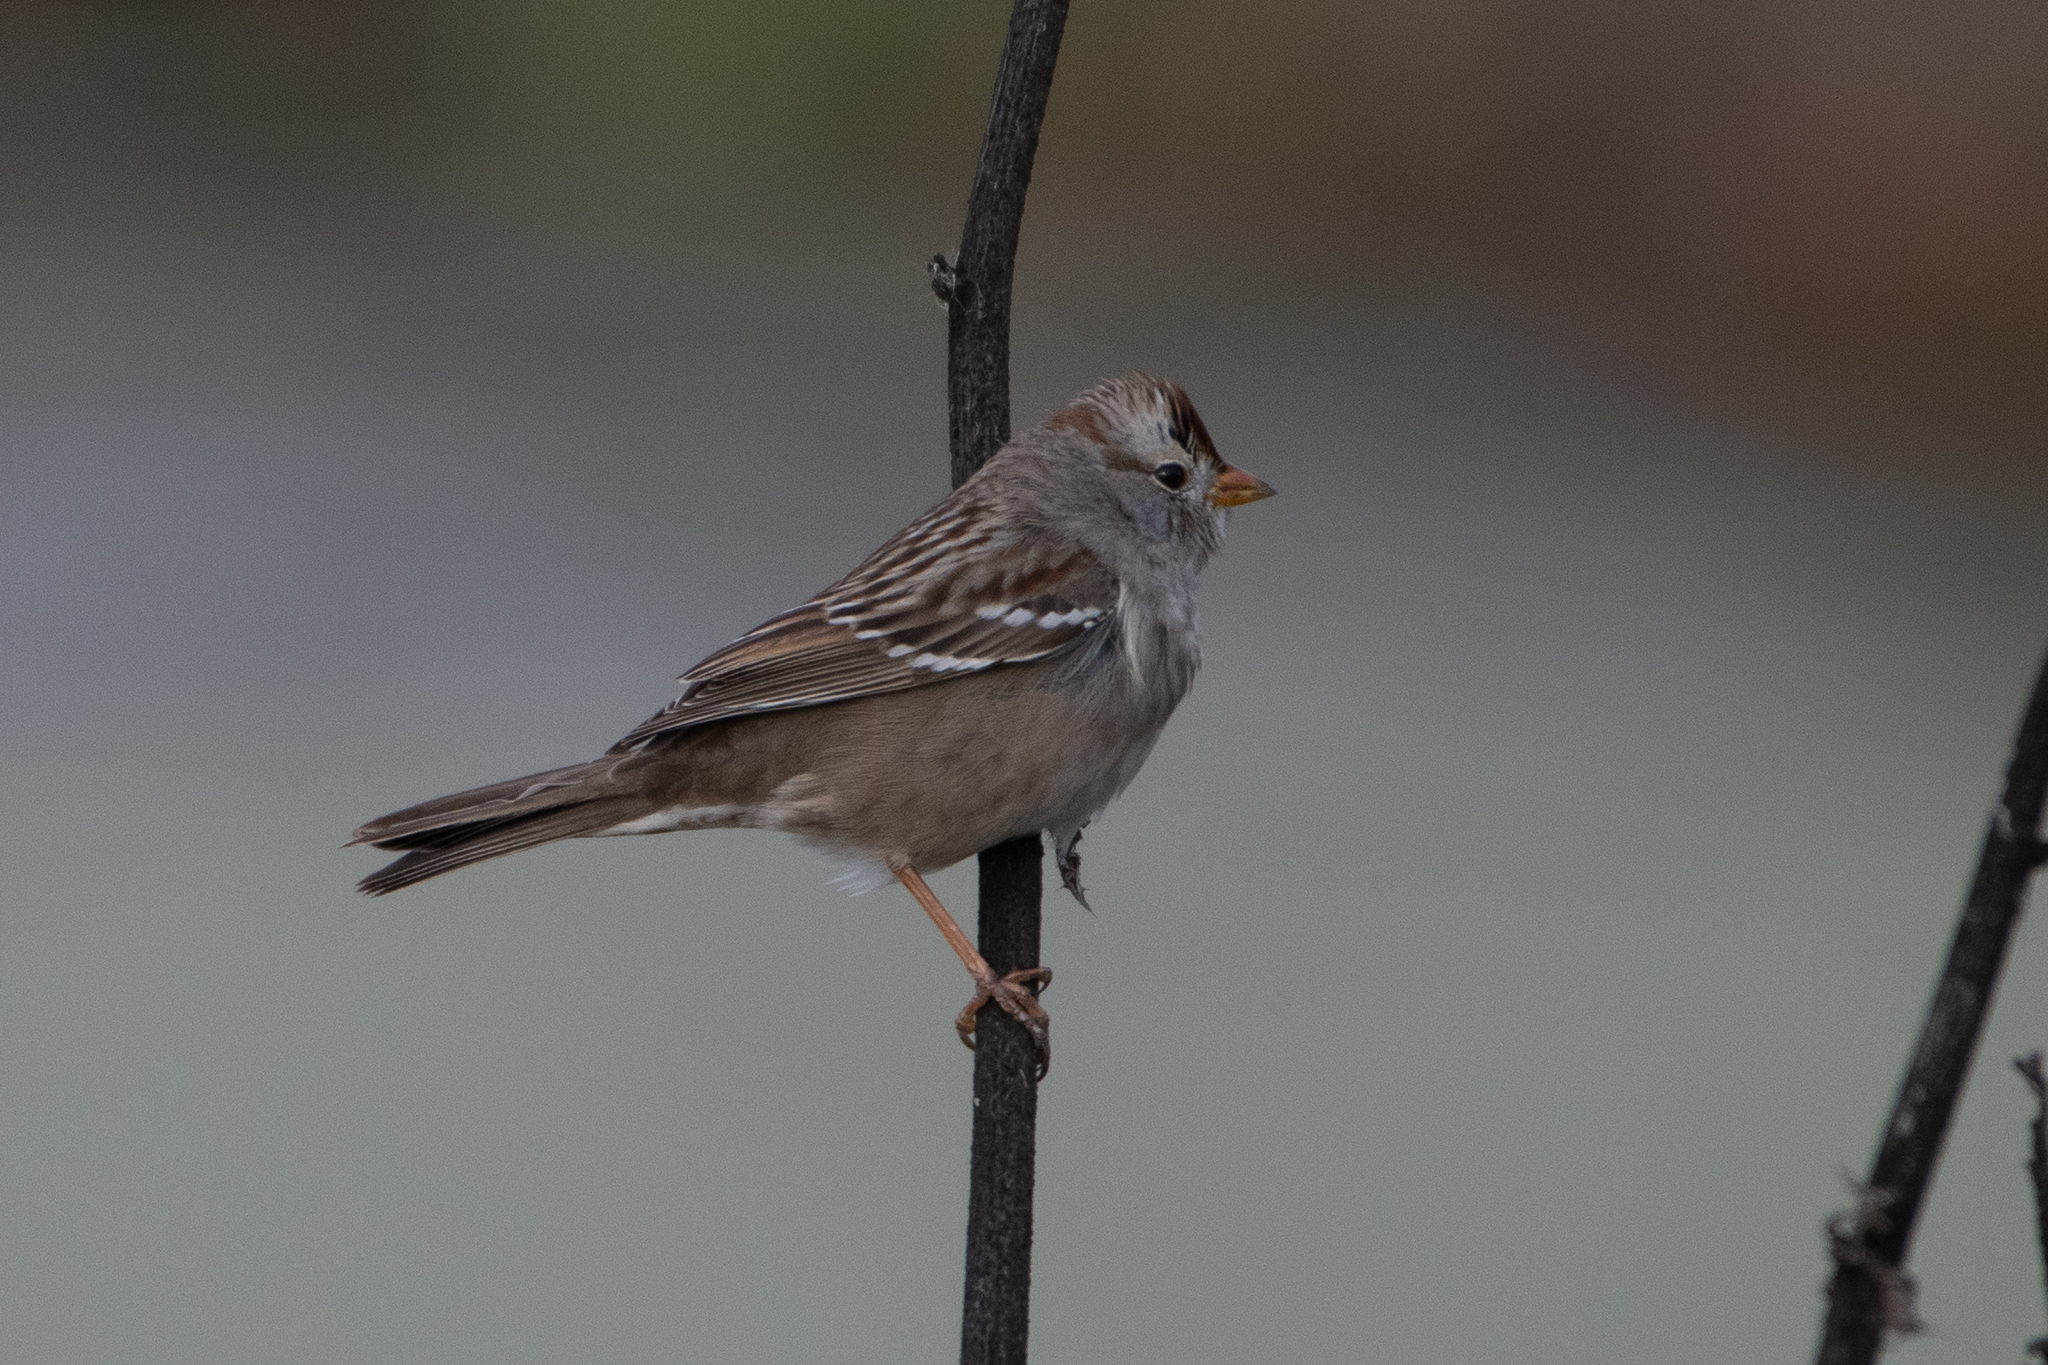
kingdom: Animalia
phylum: Chordata
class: Aves
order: Passeriformes
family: Passerellidae
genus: Zonotrichia
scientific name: Zonotrichia leucophrys
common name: White-crowned sparrow
